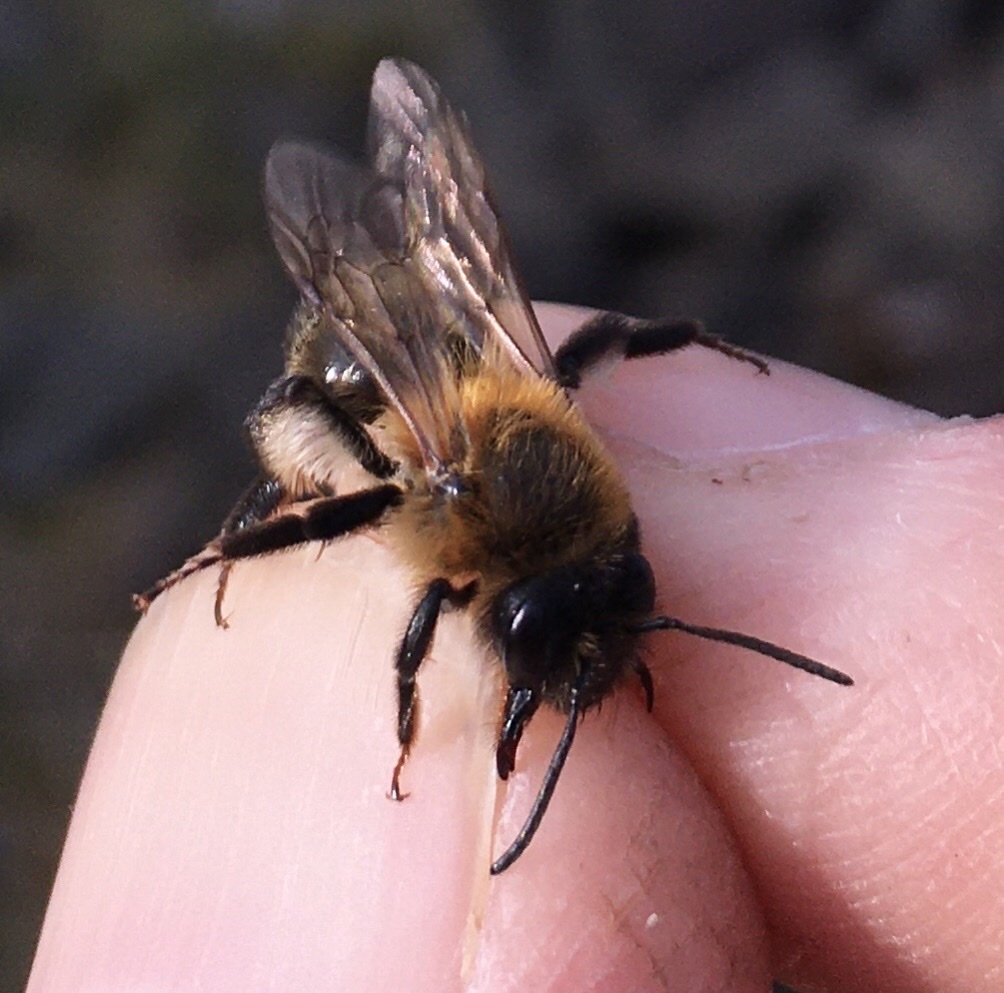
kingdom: Animalia
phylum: Arthropoda
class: Insecta
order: Hymenoptera
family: Andrenidae
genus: Andrena
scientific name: Andrena carantonica
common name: Chocolate mining bee
